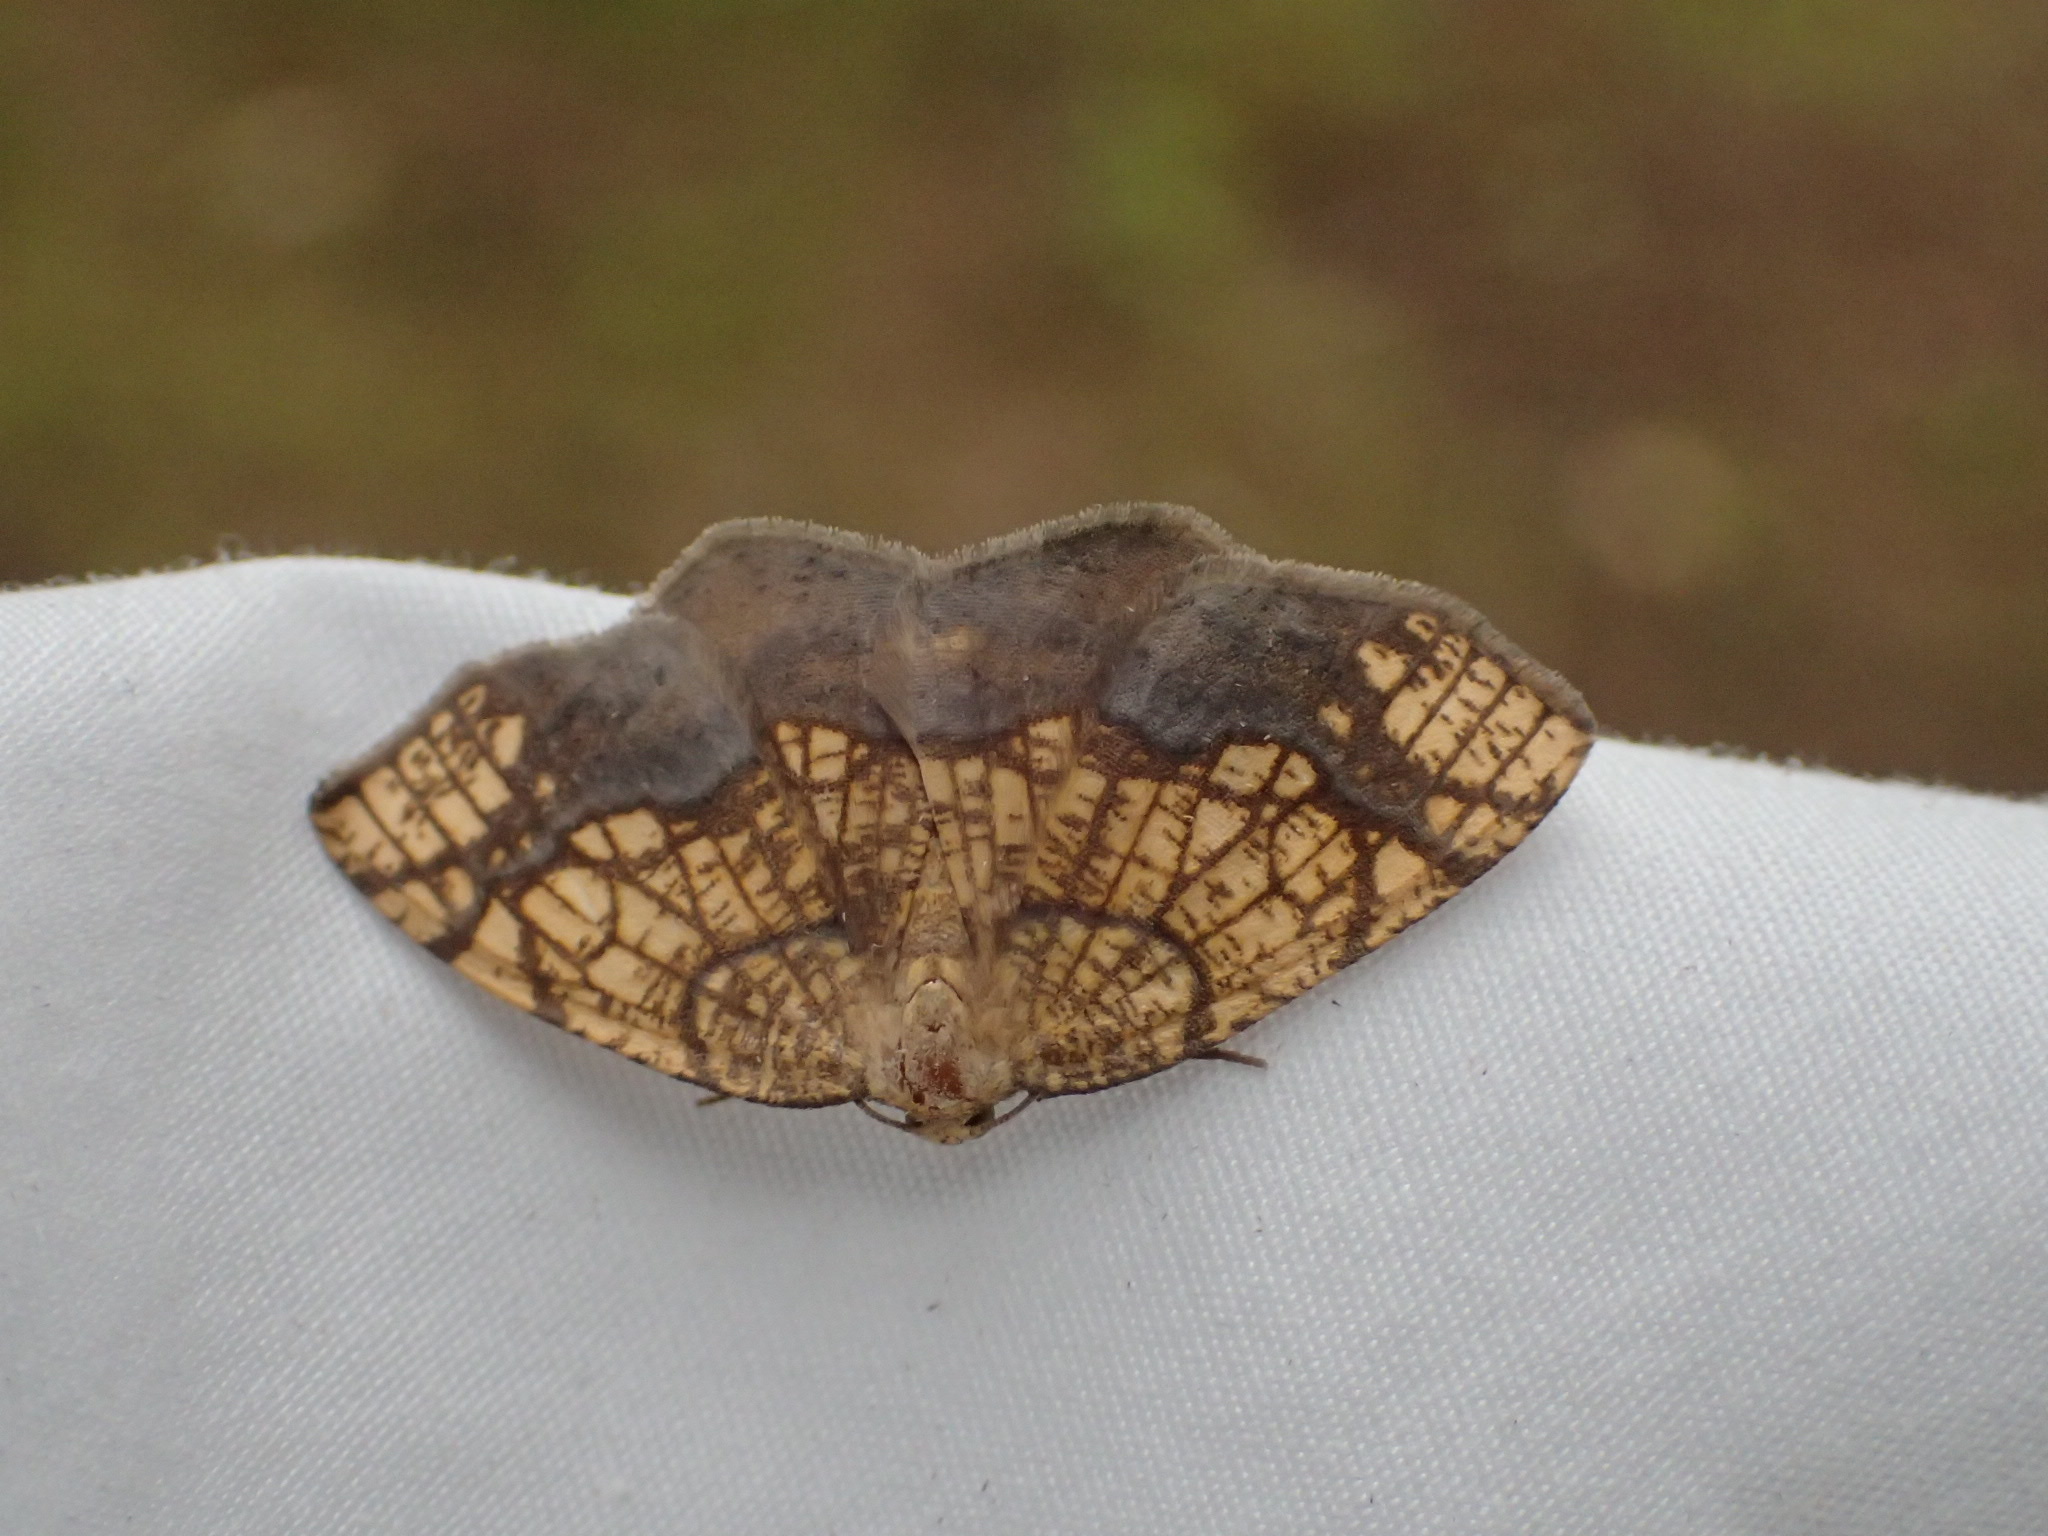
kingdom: Animalia
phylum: Arthropoda
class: Insecta
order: Lepidoptera
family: Geometridae
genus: Nematocampa
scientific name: Nematocampa resistaria
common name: Horned spanworm moth
